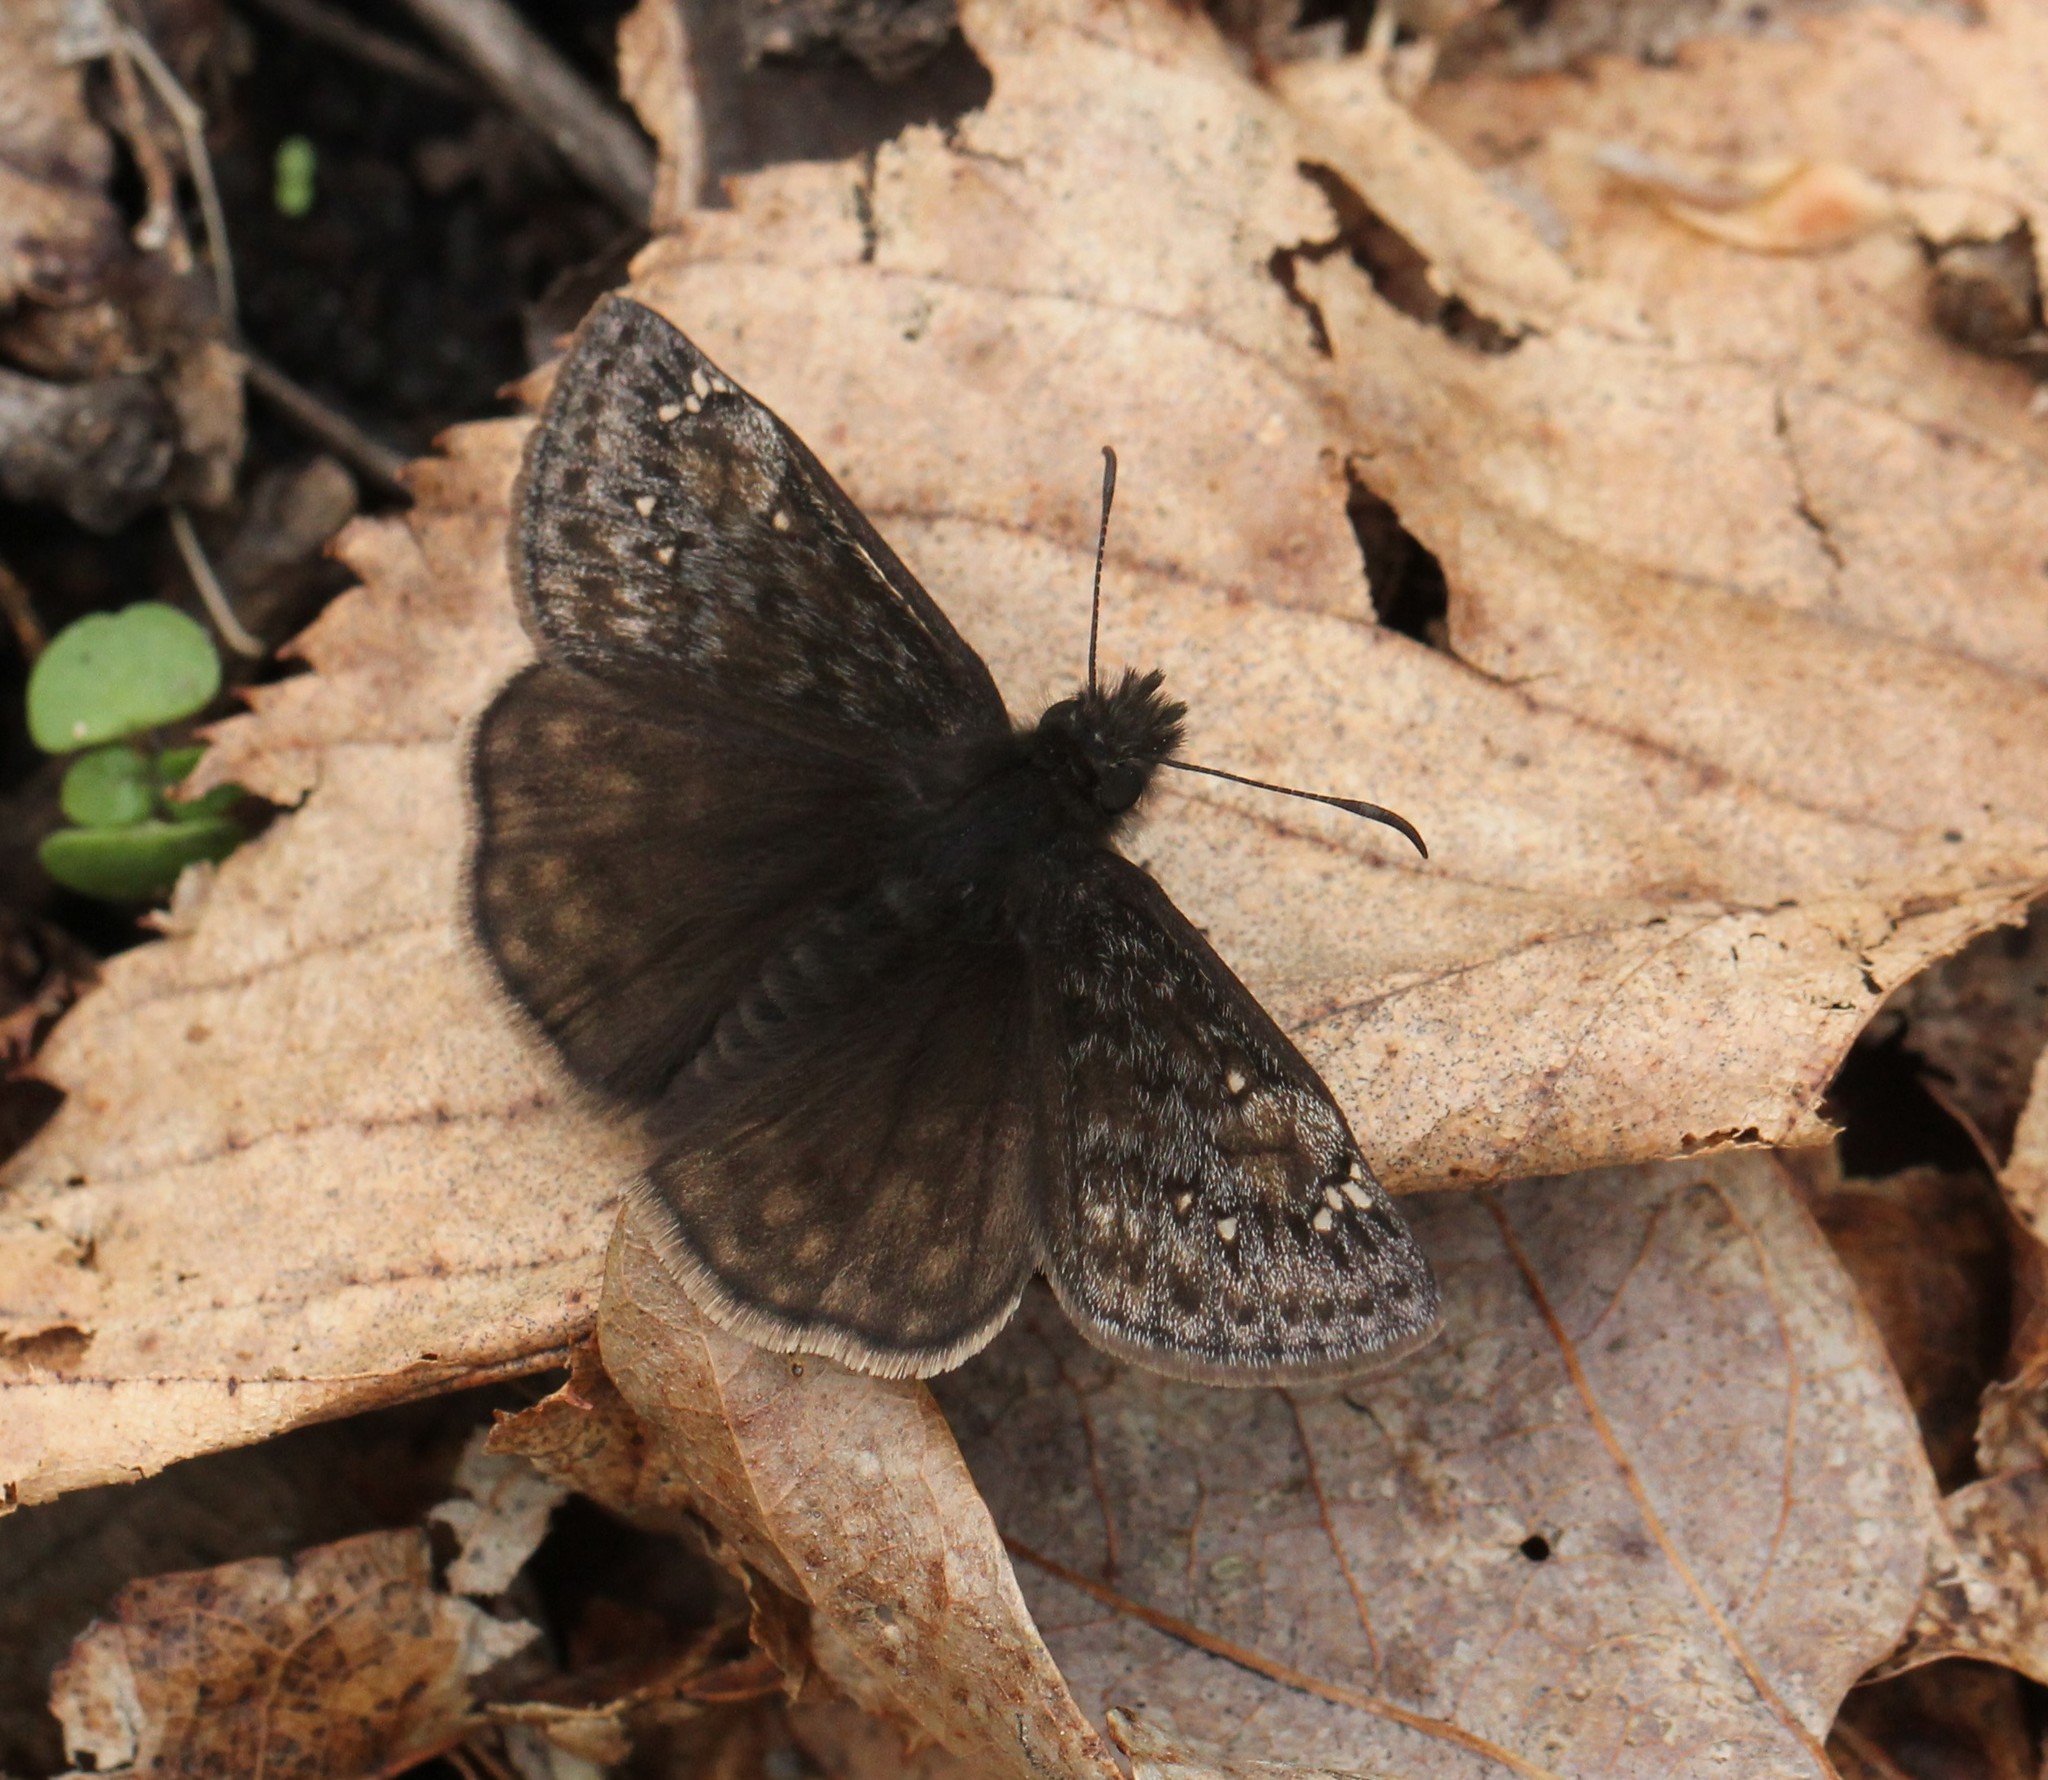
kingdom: Animalia
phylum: Arthropoda
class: Insecta
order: Lepidoptera
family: Hesperiidae
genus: Erynnis
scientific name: Erynnis juvenalis
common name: Juvenal's duskywing
